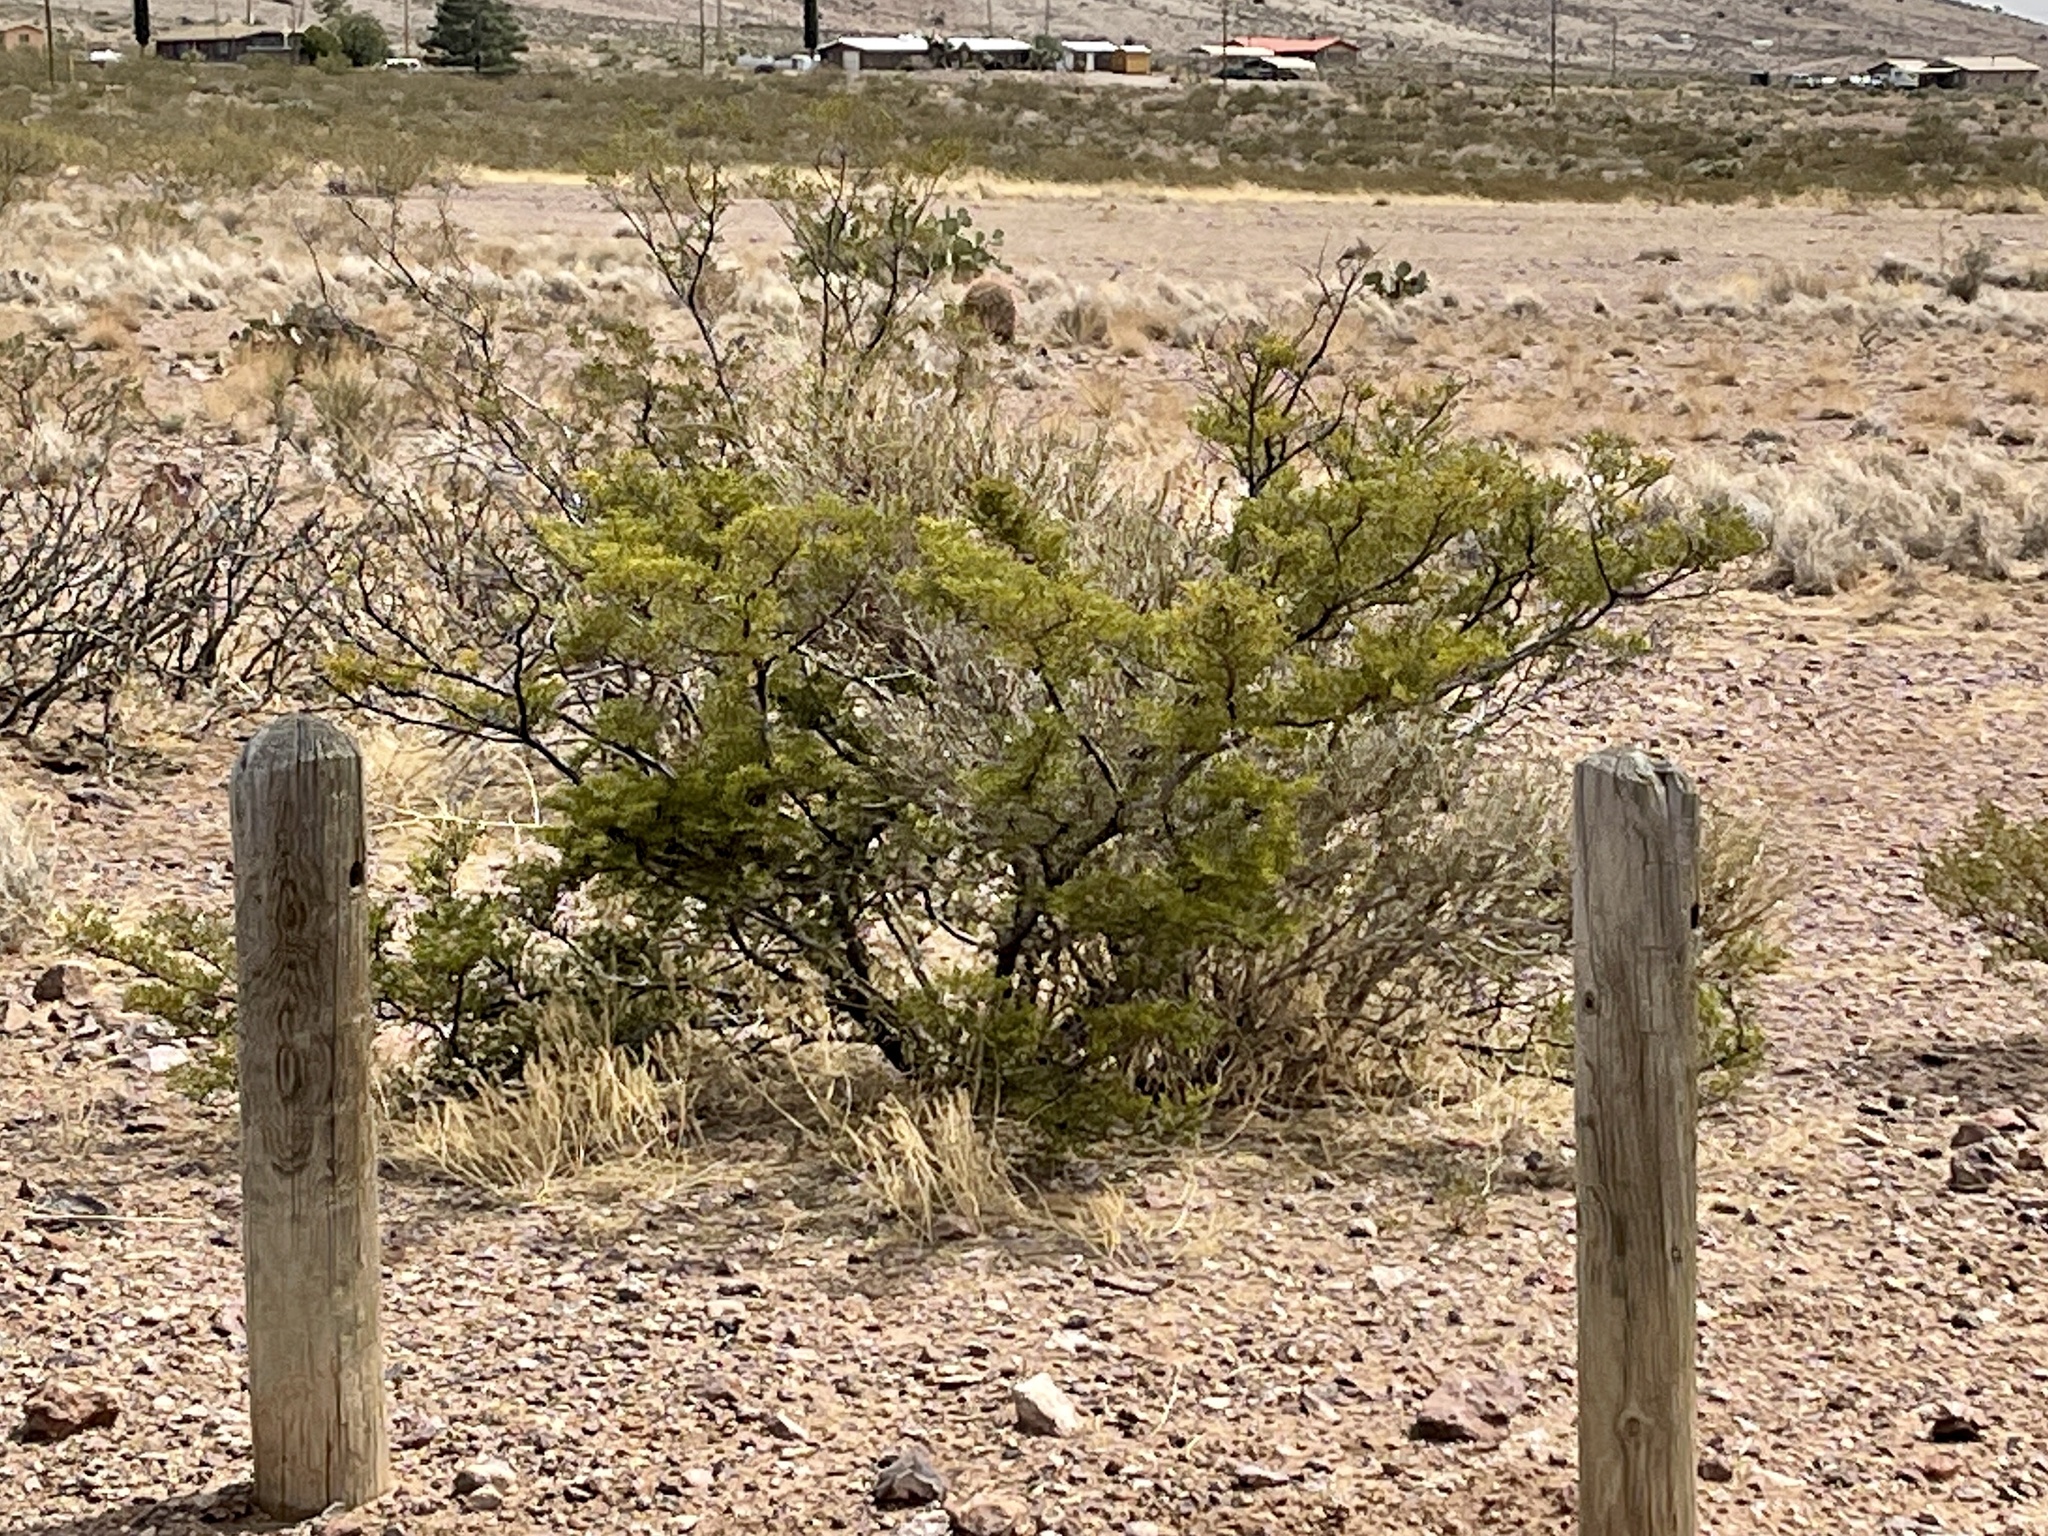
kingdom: Plantae
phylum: Tracheophyta
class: Magnoliopsida
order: Zygophyllales
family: Zygophyllaceae
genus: Larrea
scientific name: Larrea tridentata
